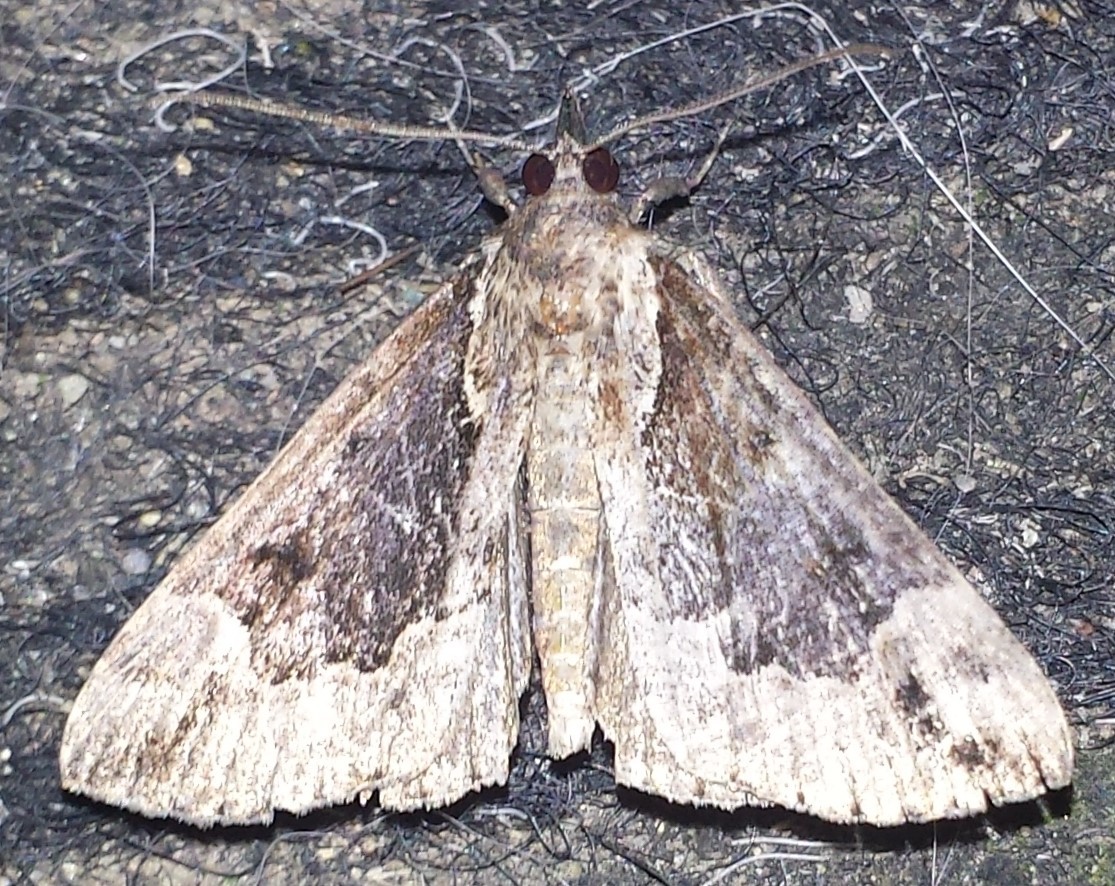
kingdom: Animalia
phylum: Arthropoda
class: Insecta
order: Lepidoptera
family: Erebidae
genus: Hypena
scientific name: Hypena baltimoralis
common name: Baltimore snout
